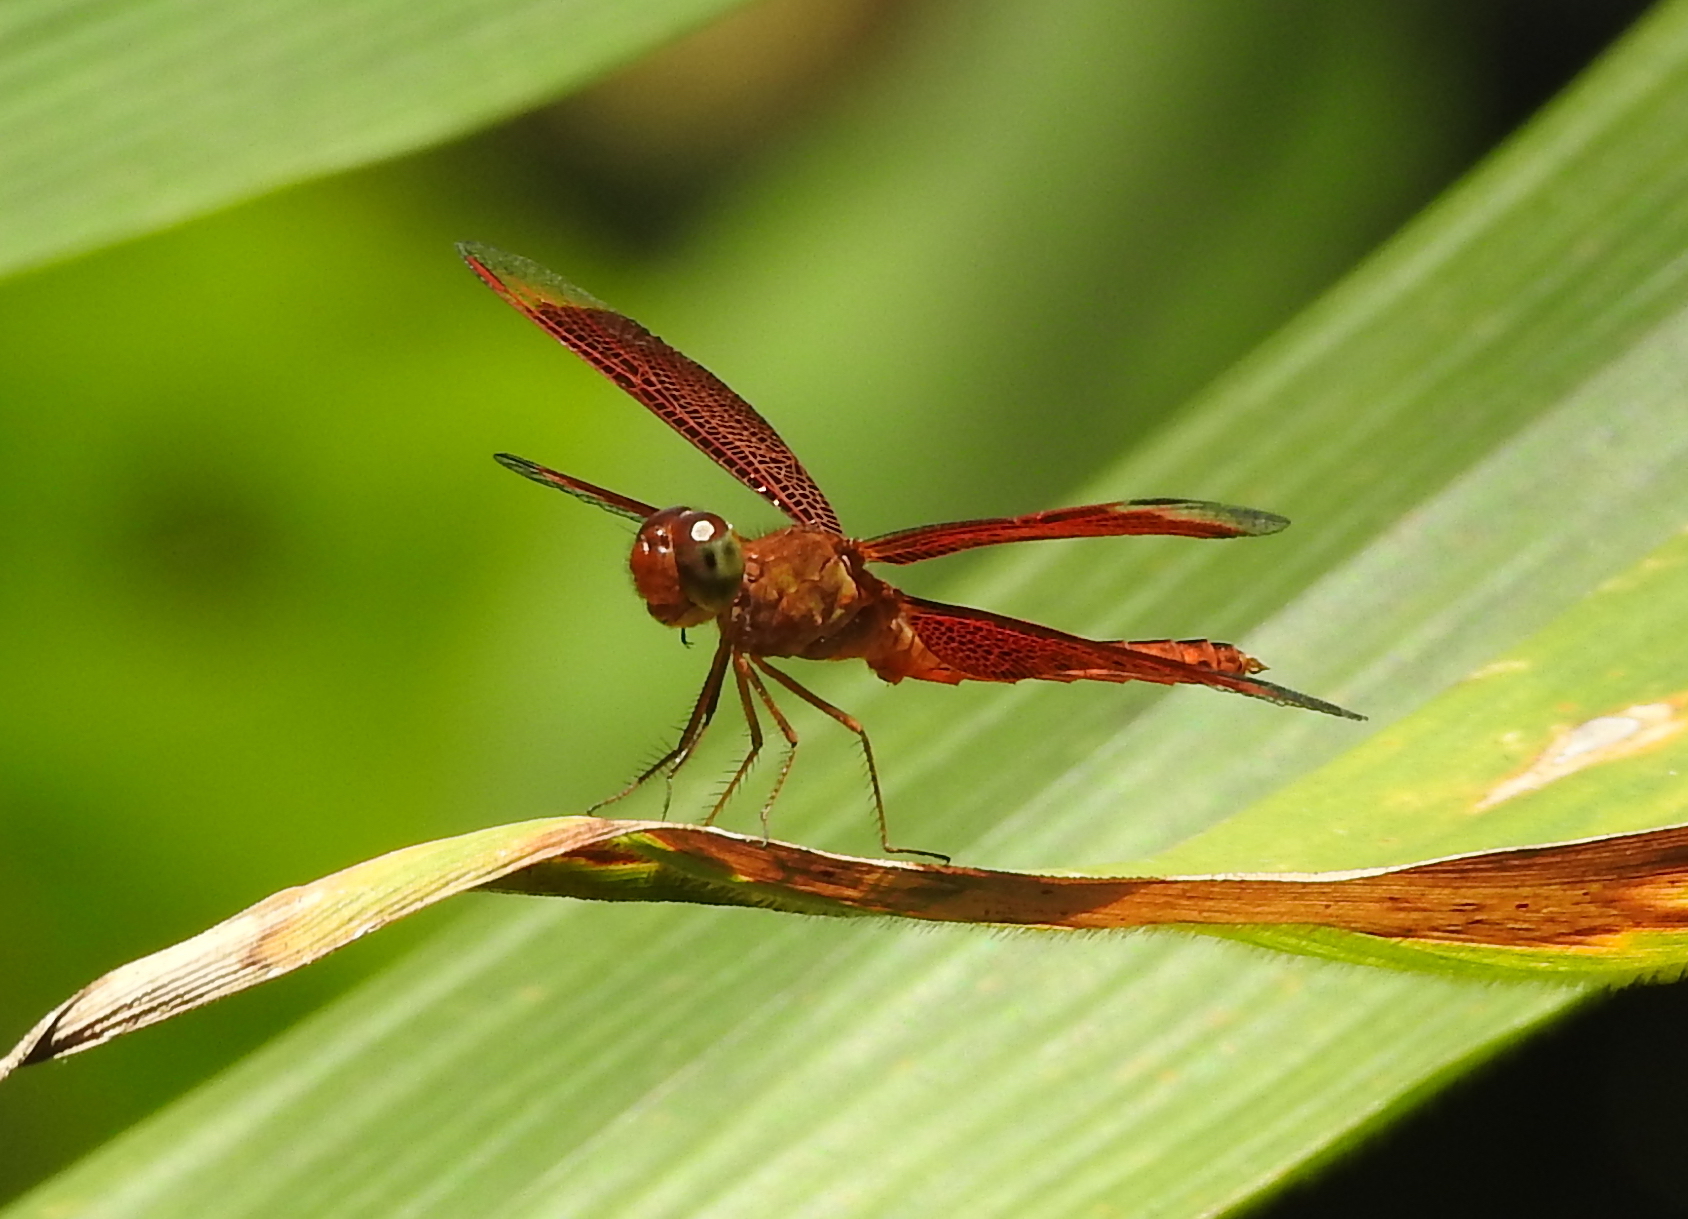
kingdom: Animalia
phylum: Arthropoda
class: Insecta
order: Odonata
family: Libellulidae
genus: Neurothemis
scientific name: Neurothemis fluctuans
